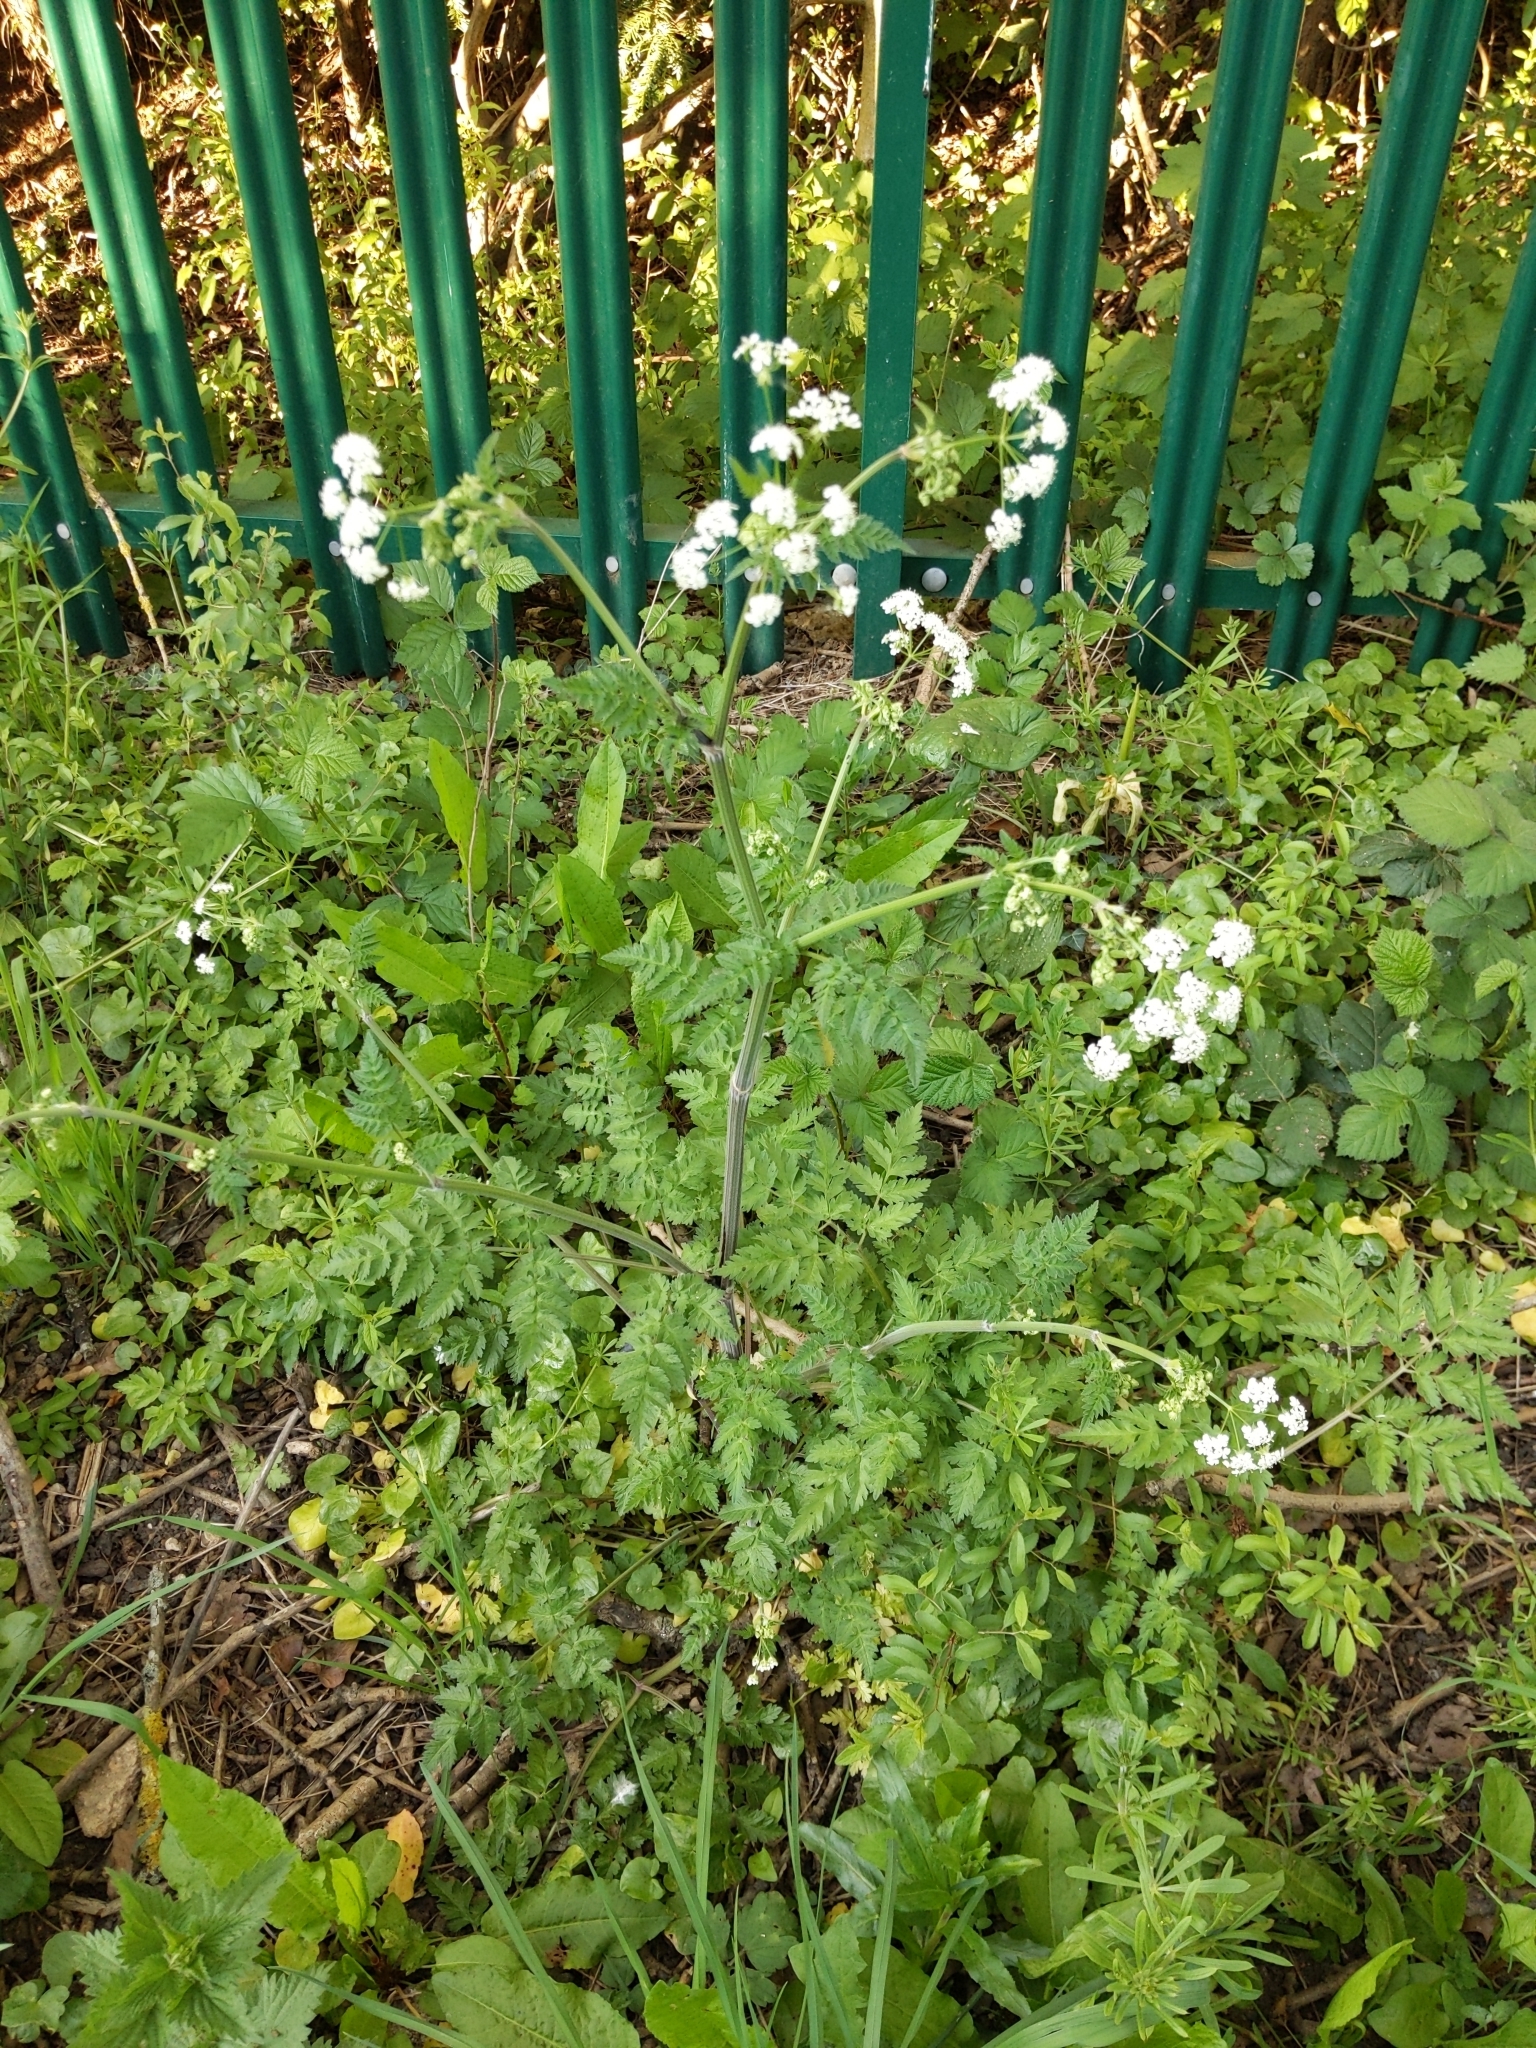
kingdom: Plantae
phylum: Tracheophyta
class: Magnoliopsida
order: Apiales
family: Apiaceae
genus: Anthriscus
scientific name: Anthriscus sylvestris
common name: Cow parsley
